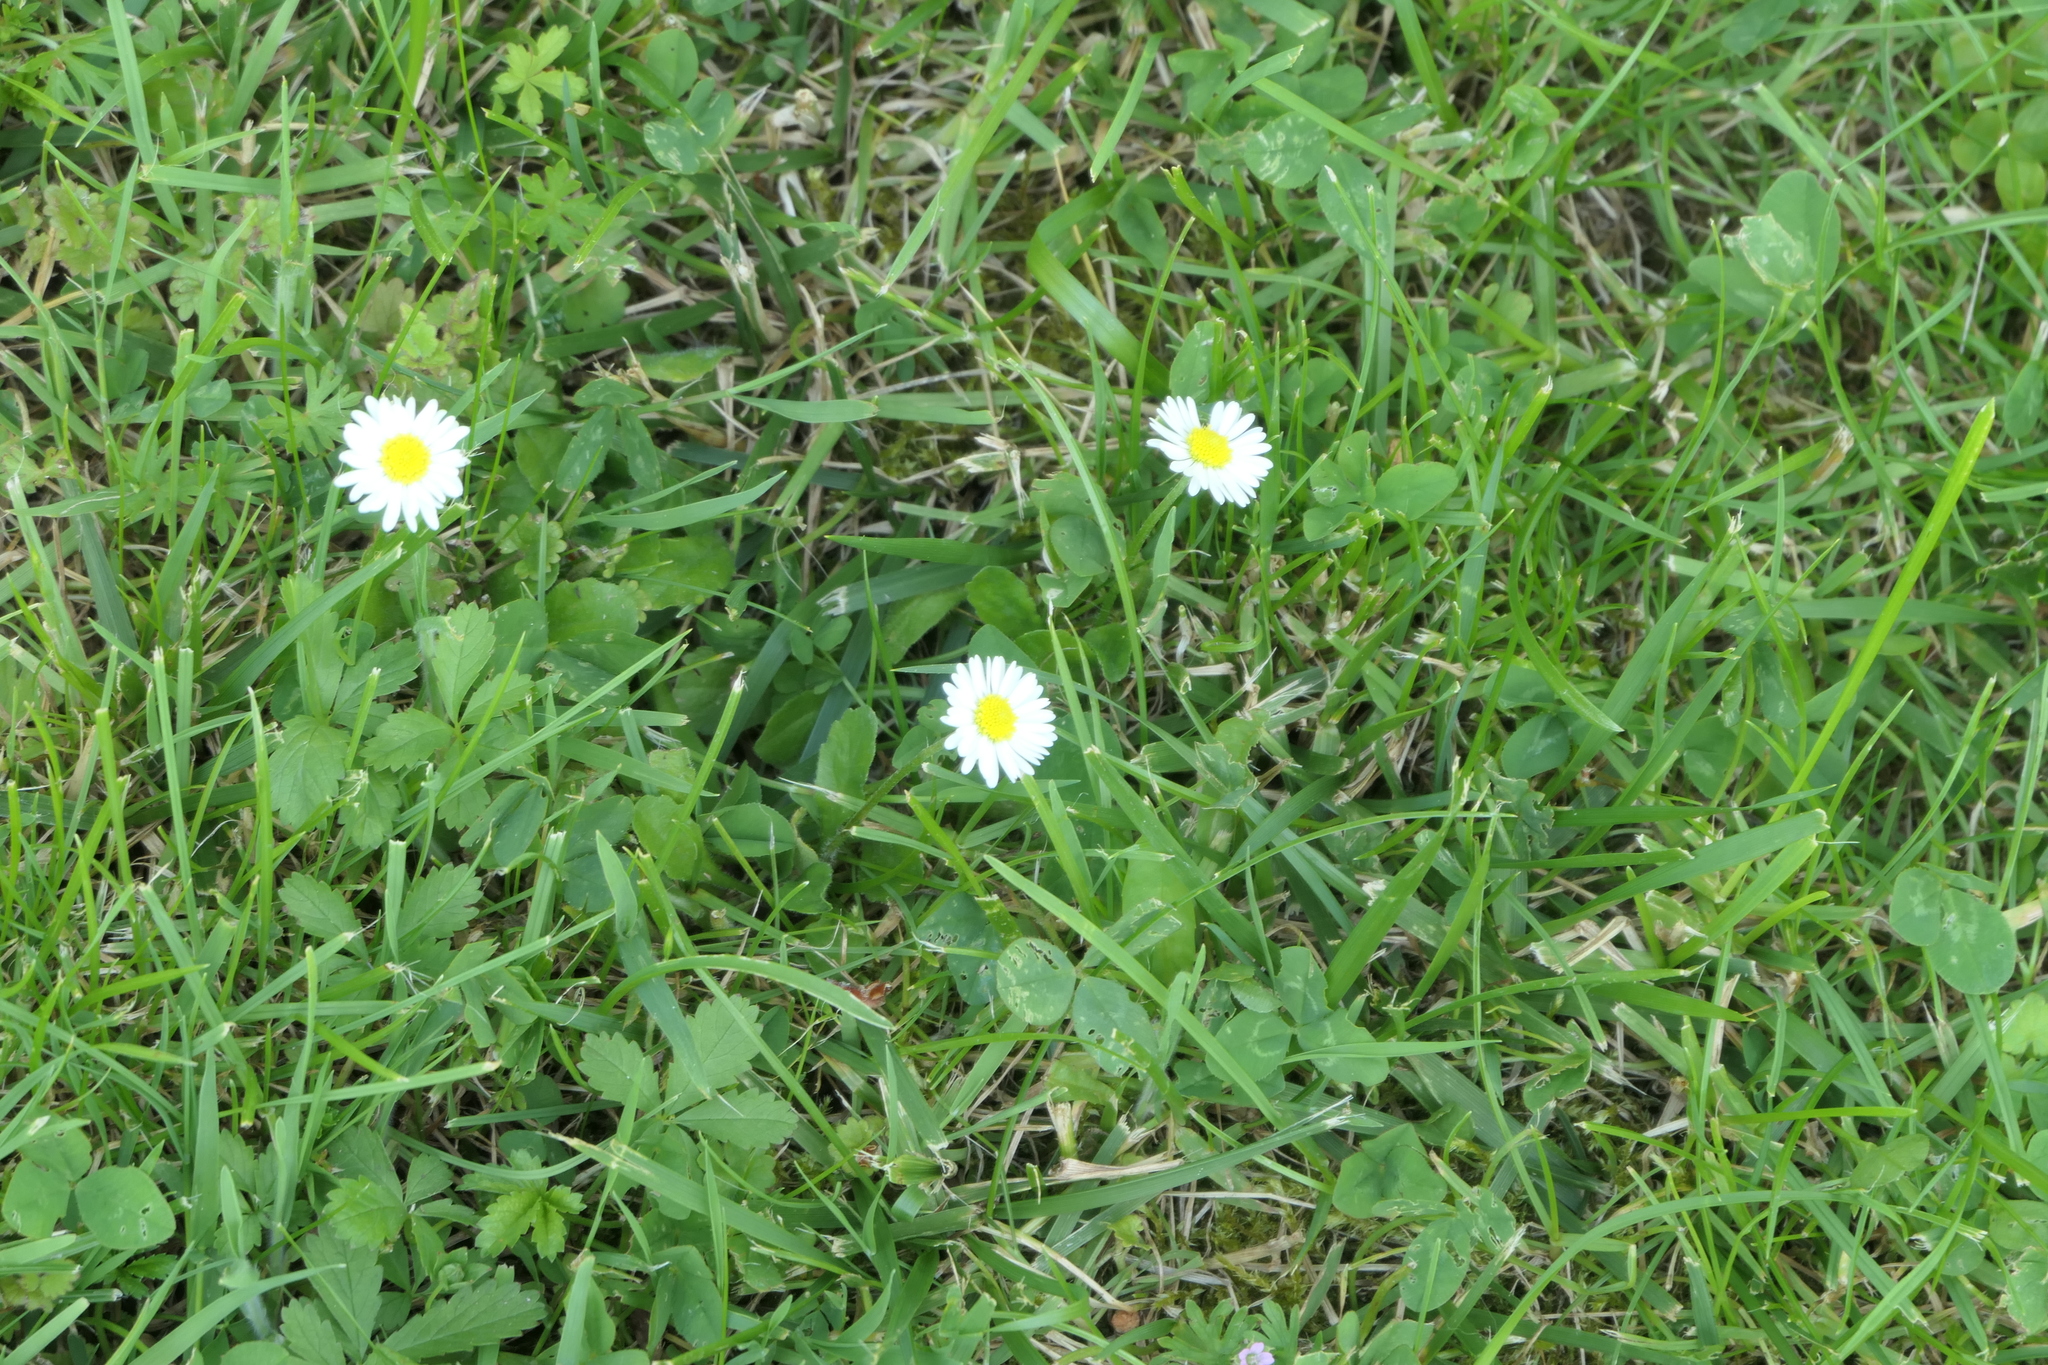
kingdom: Plantae
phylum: Tracheophyta
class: Magnoliopsida
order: Asterales
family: Asteraceae
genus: Bellis
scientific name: Bellis perennis
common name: Lawndaisy
